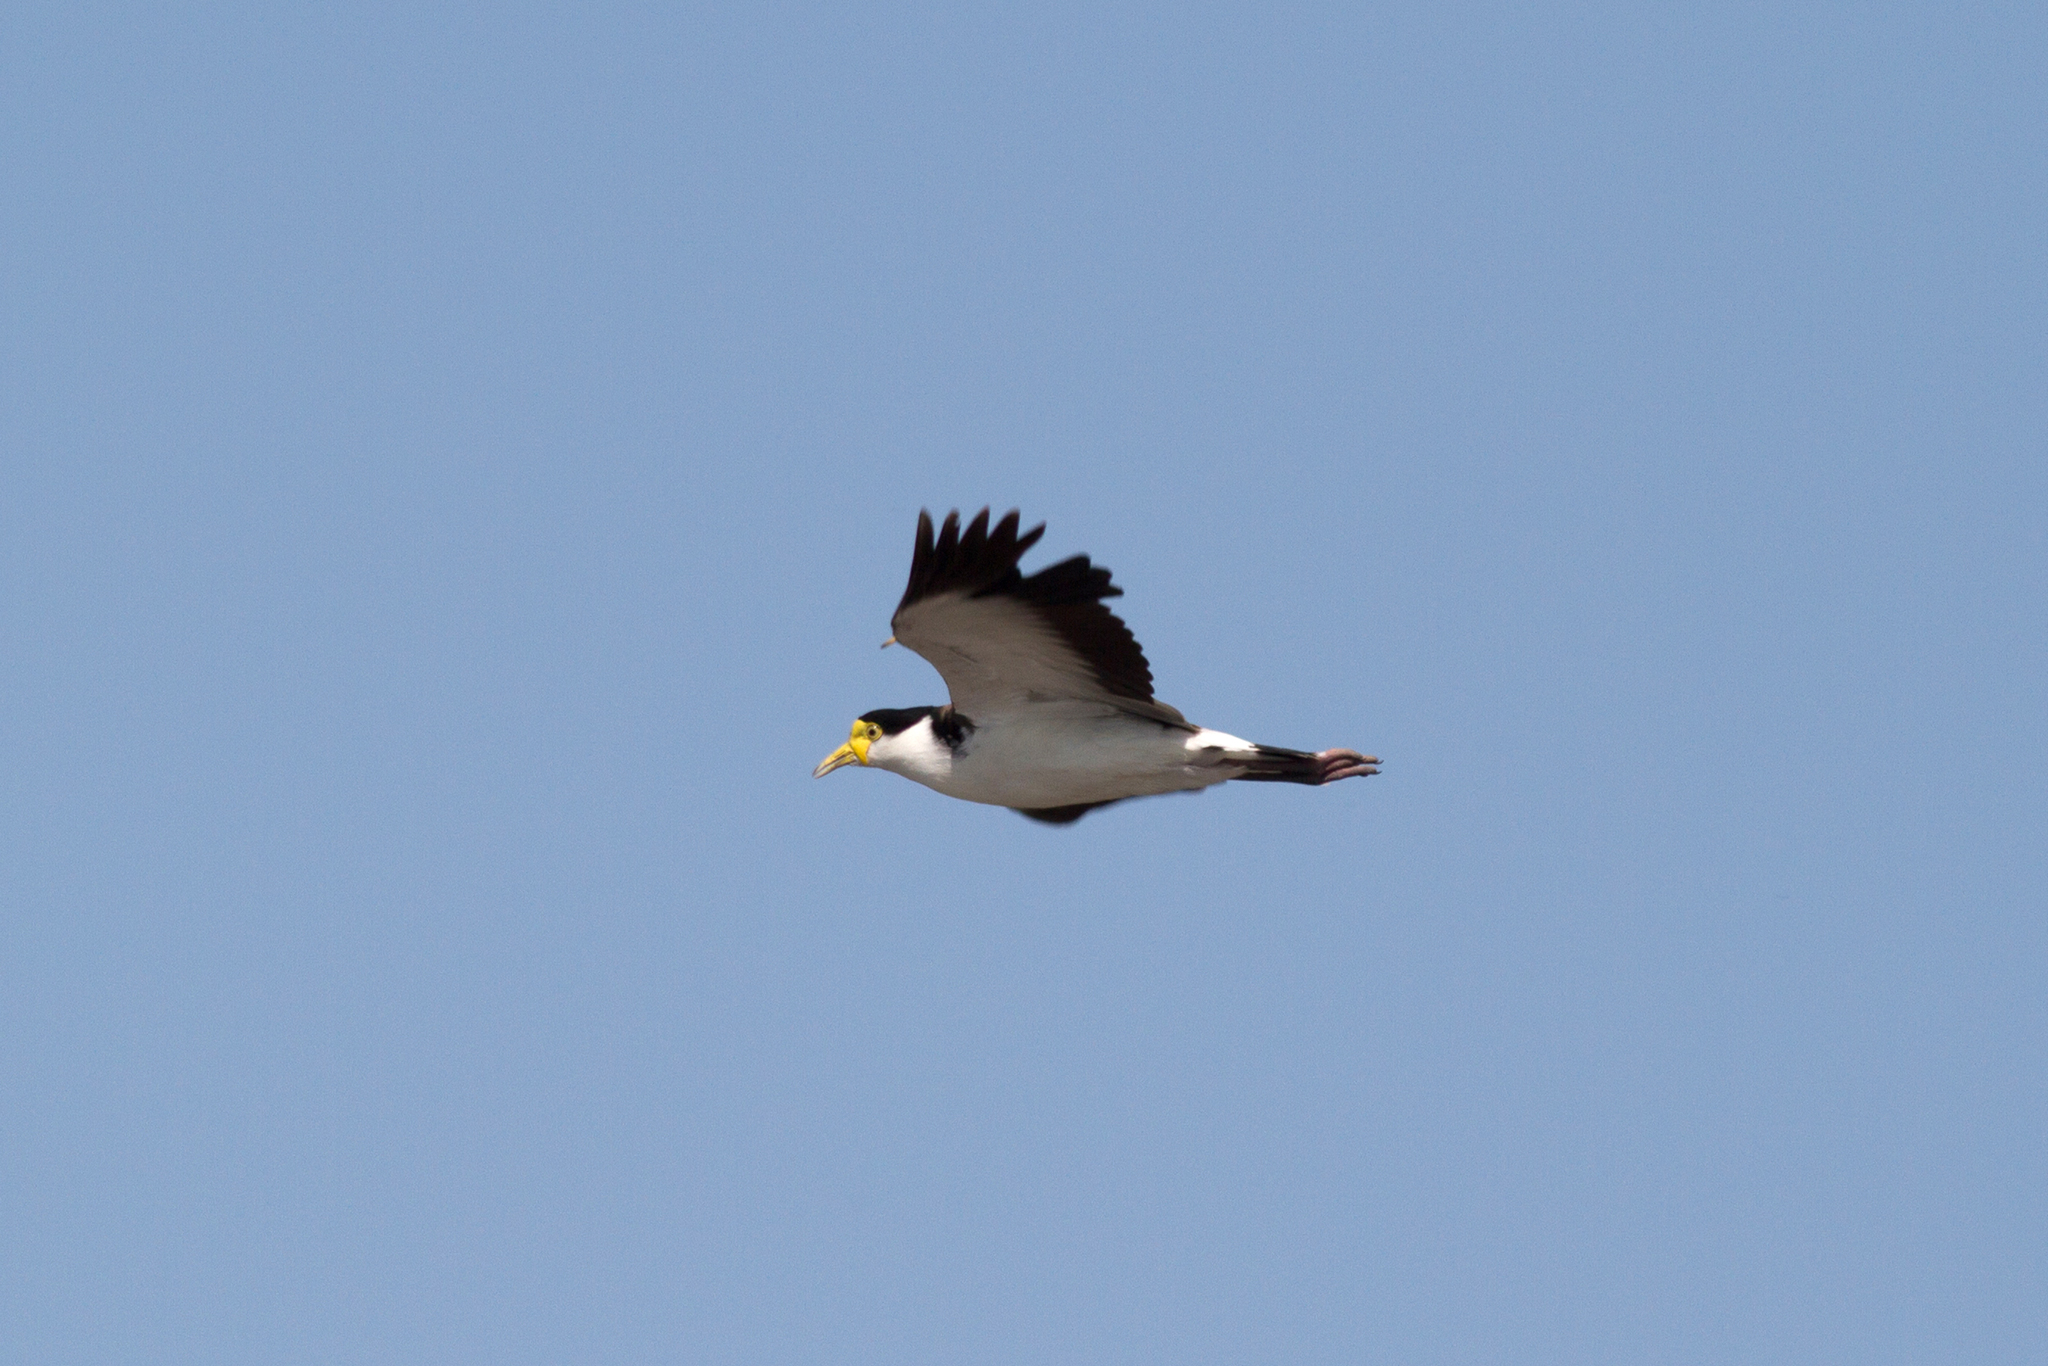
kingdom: Animalia
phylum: Chordata
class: Aves
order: Charadriiformes
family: Charadriidae
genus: Vanellus
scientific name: Vanellus miles
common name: Masked lapwing
